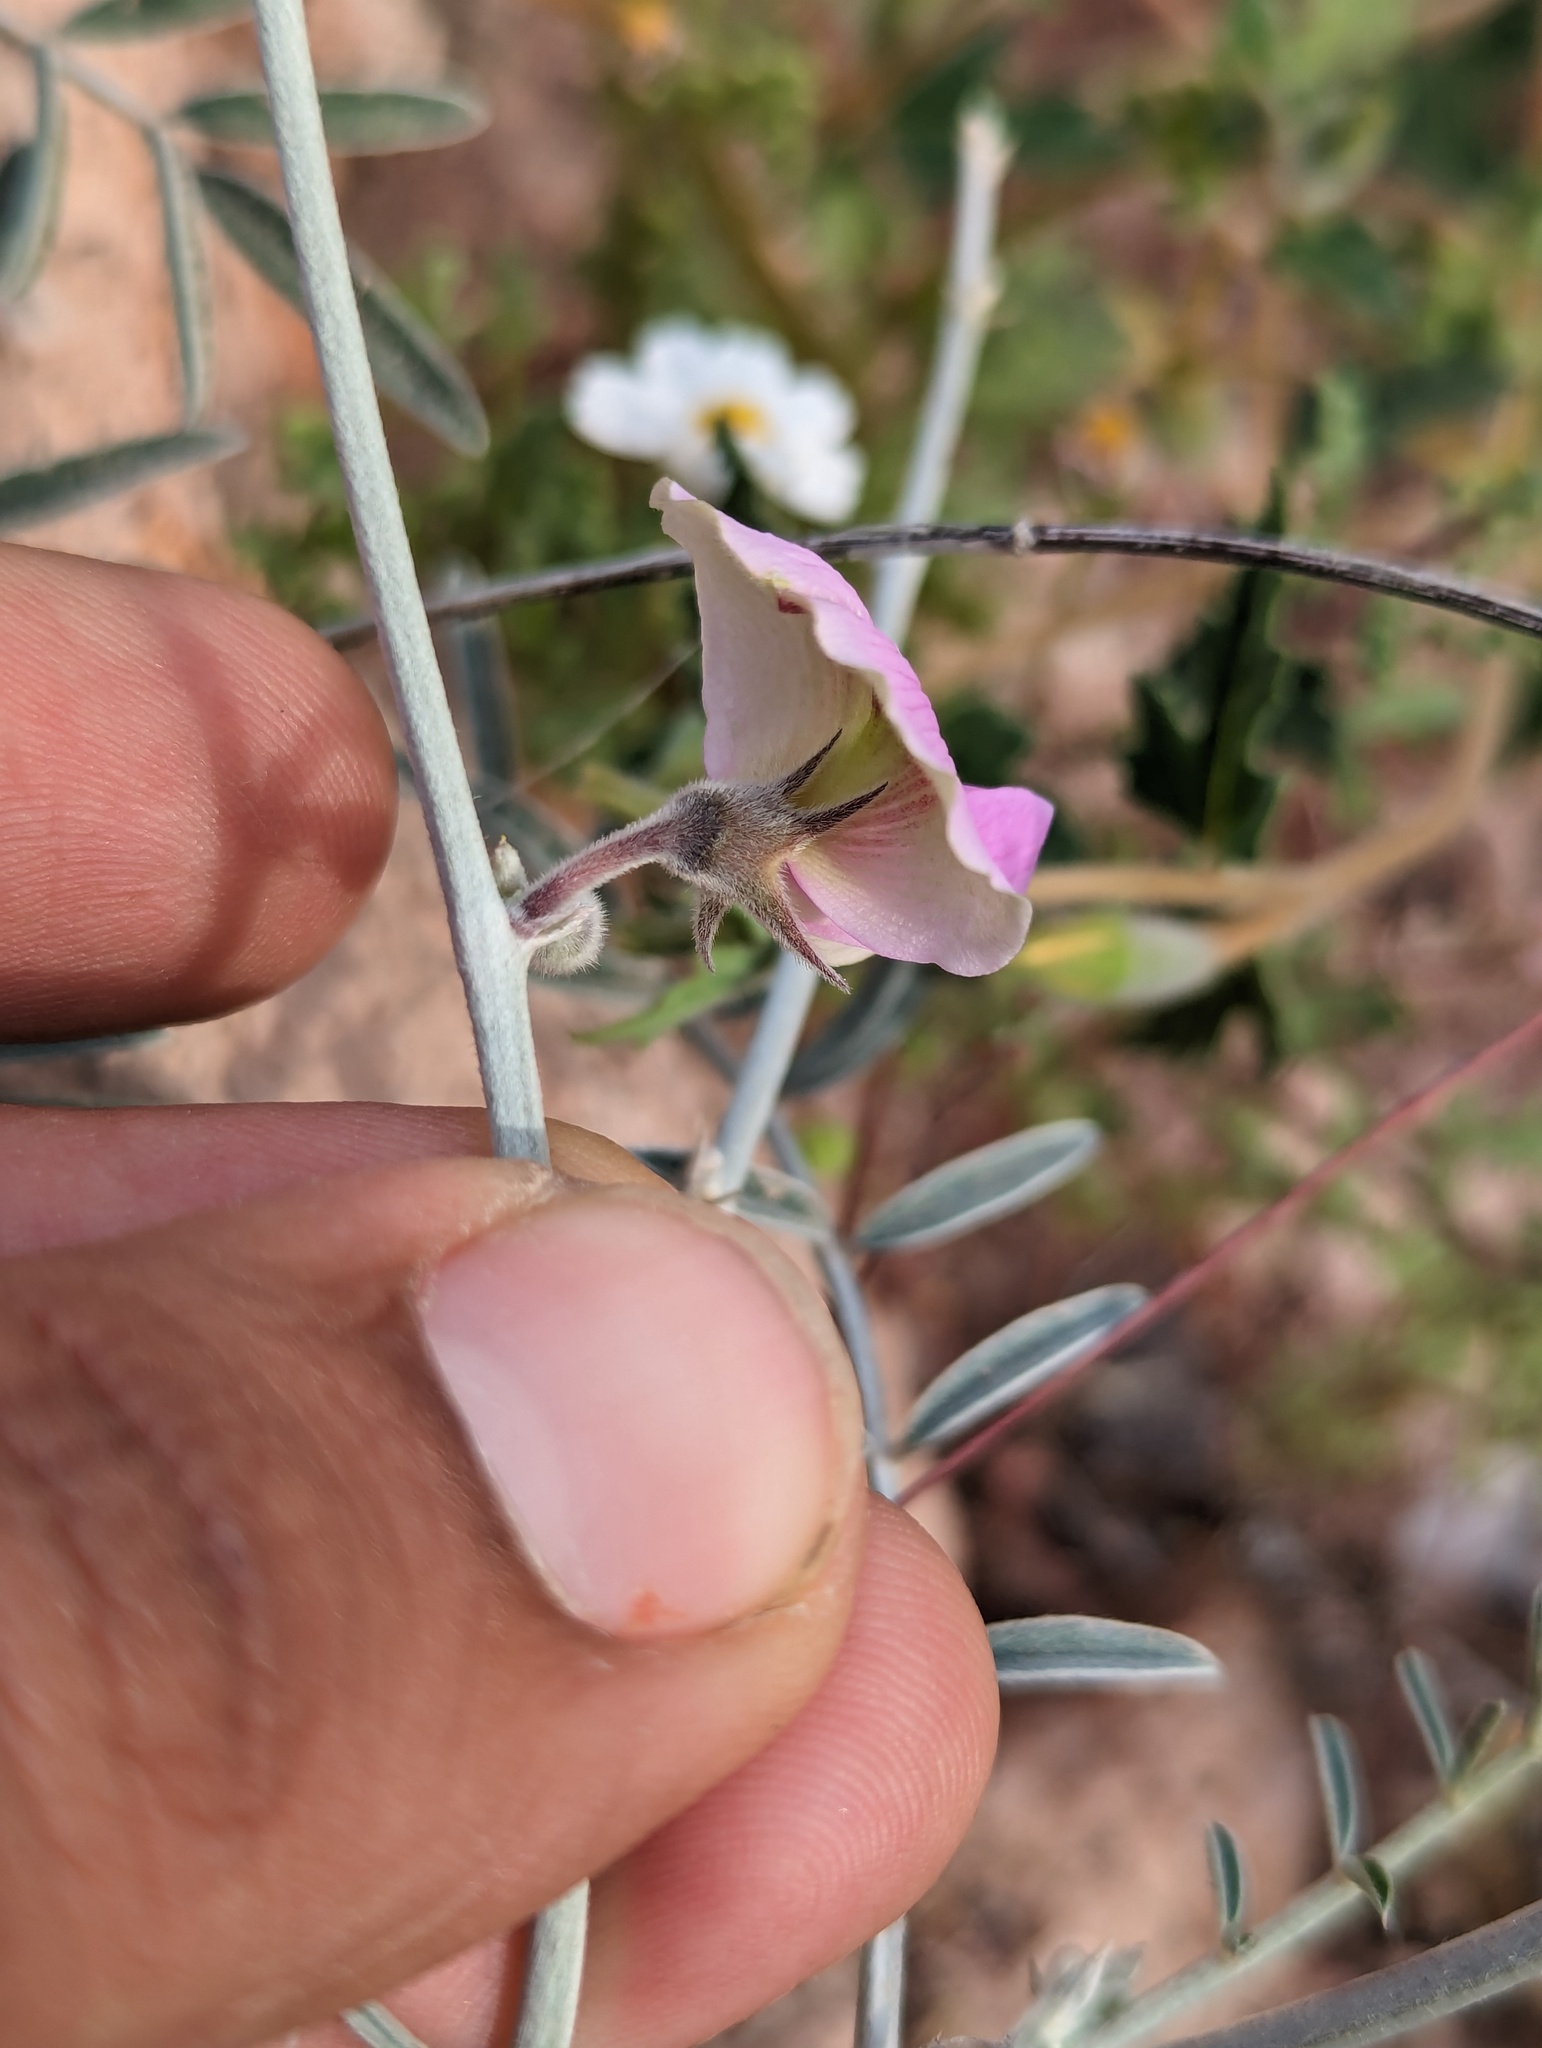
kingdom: Plantae
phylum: Tracheophyta
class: Magnoliopsida
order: Fabales
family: Fabaceae
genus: Tephrosia
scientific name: Tephrosia palmeri
